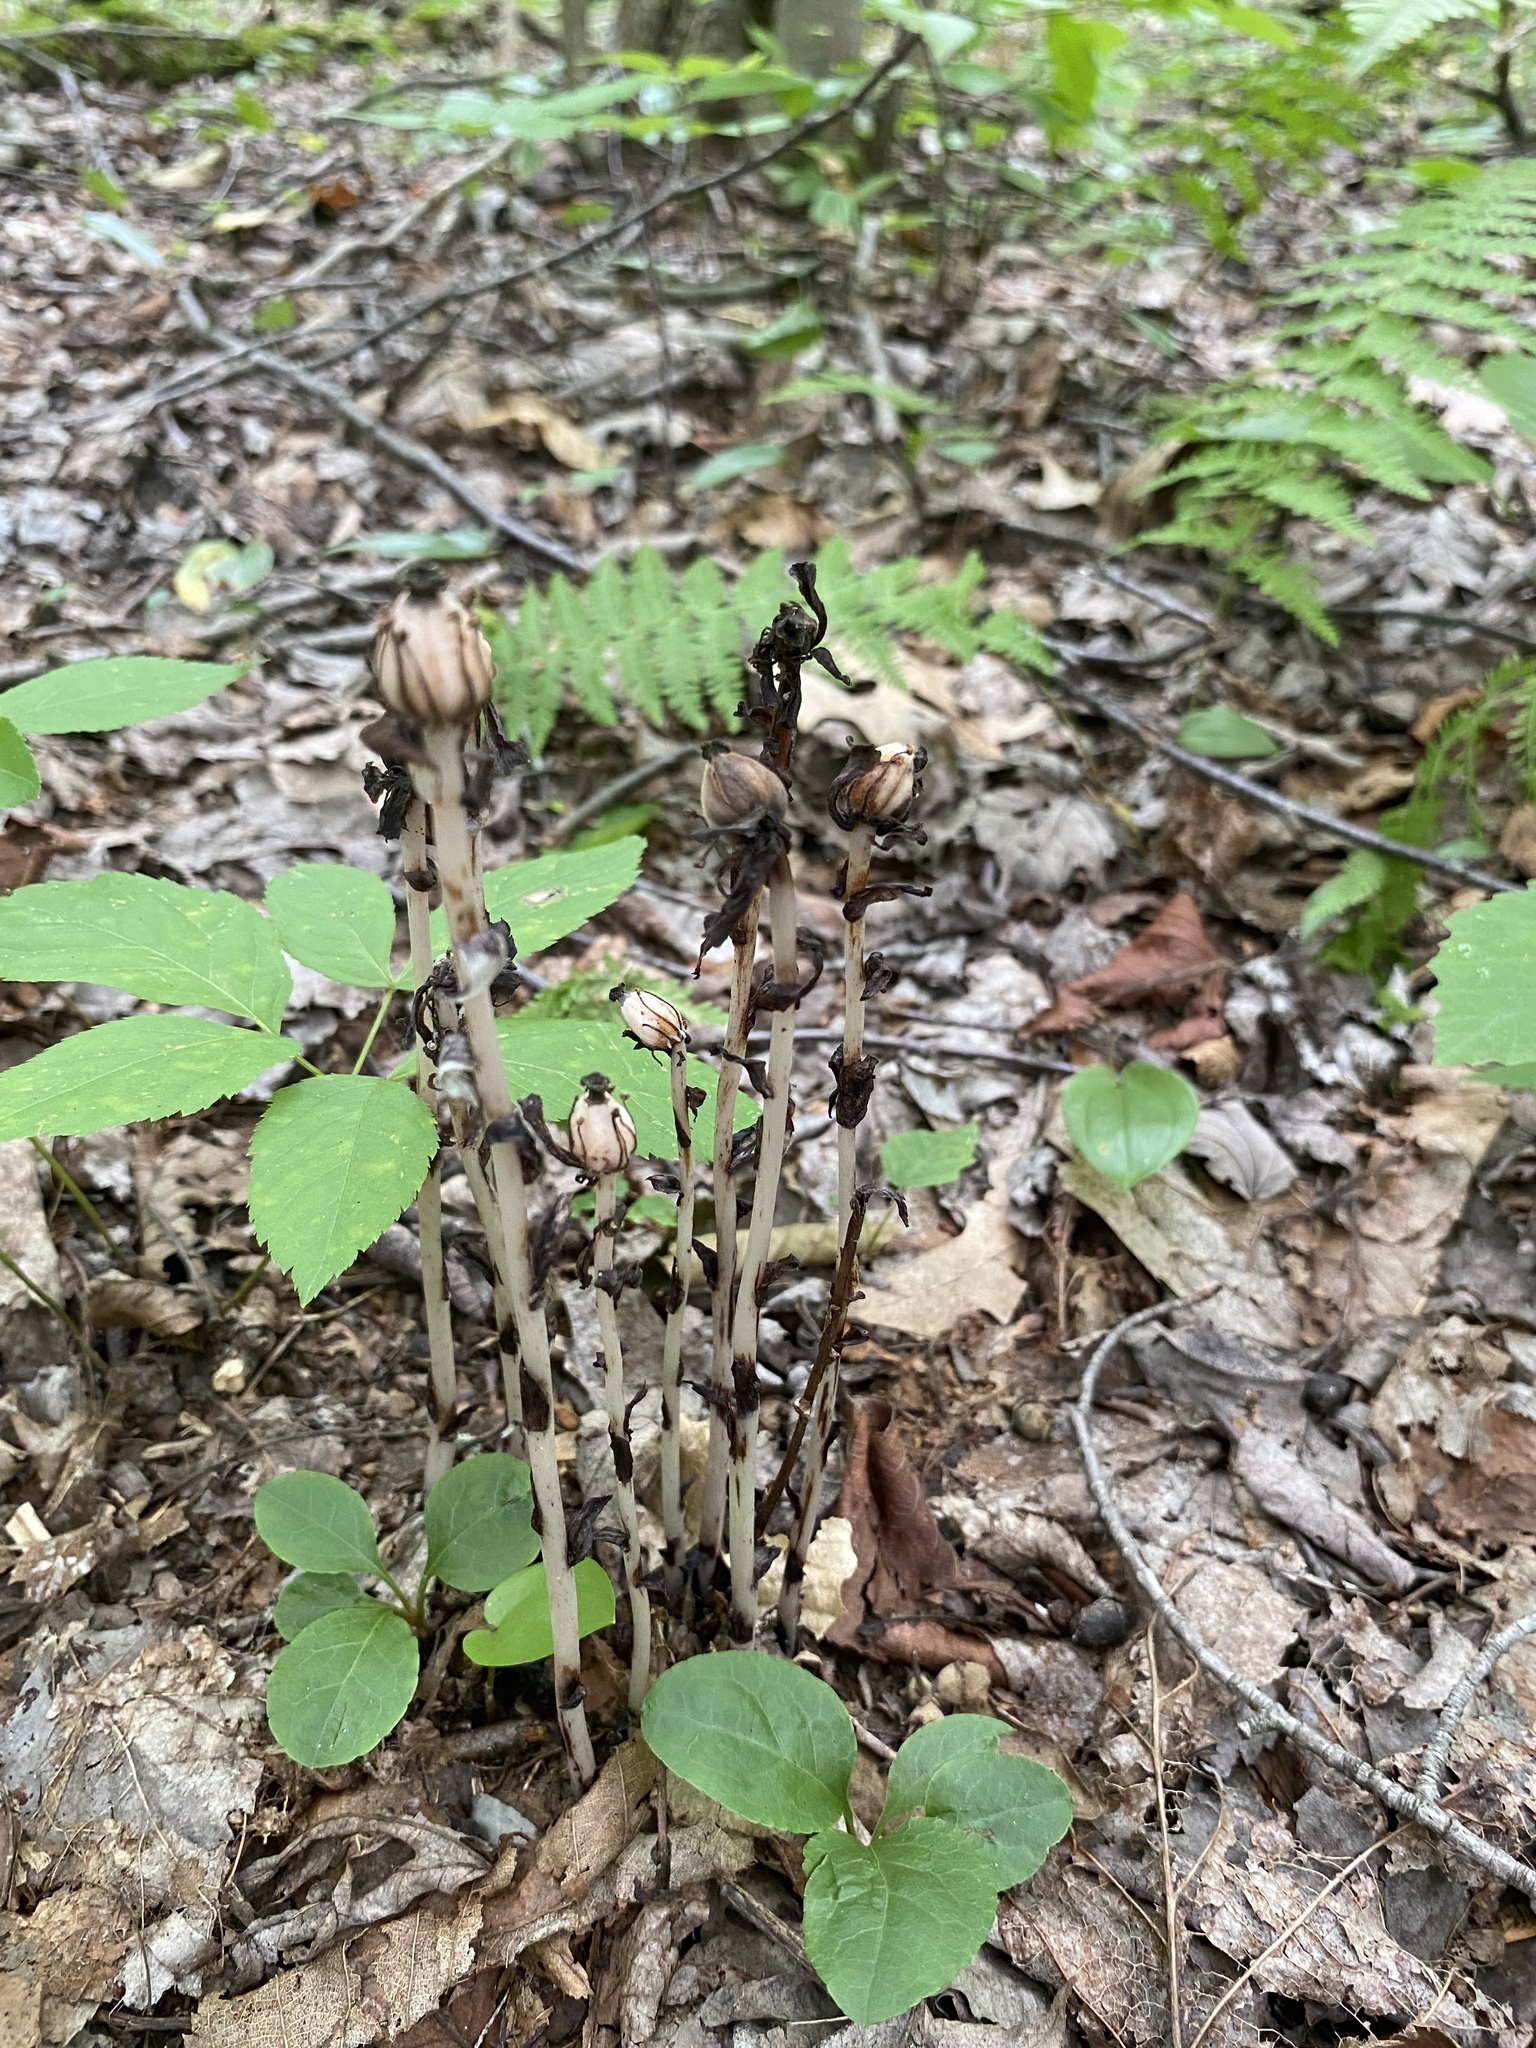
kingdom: Plantae
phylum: Tracheophyta
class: Magnoliopsida
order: Ericales
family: Ericaceae
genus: Monotropa
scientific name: Monotropa uniflora
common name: Convulsion root
